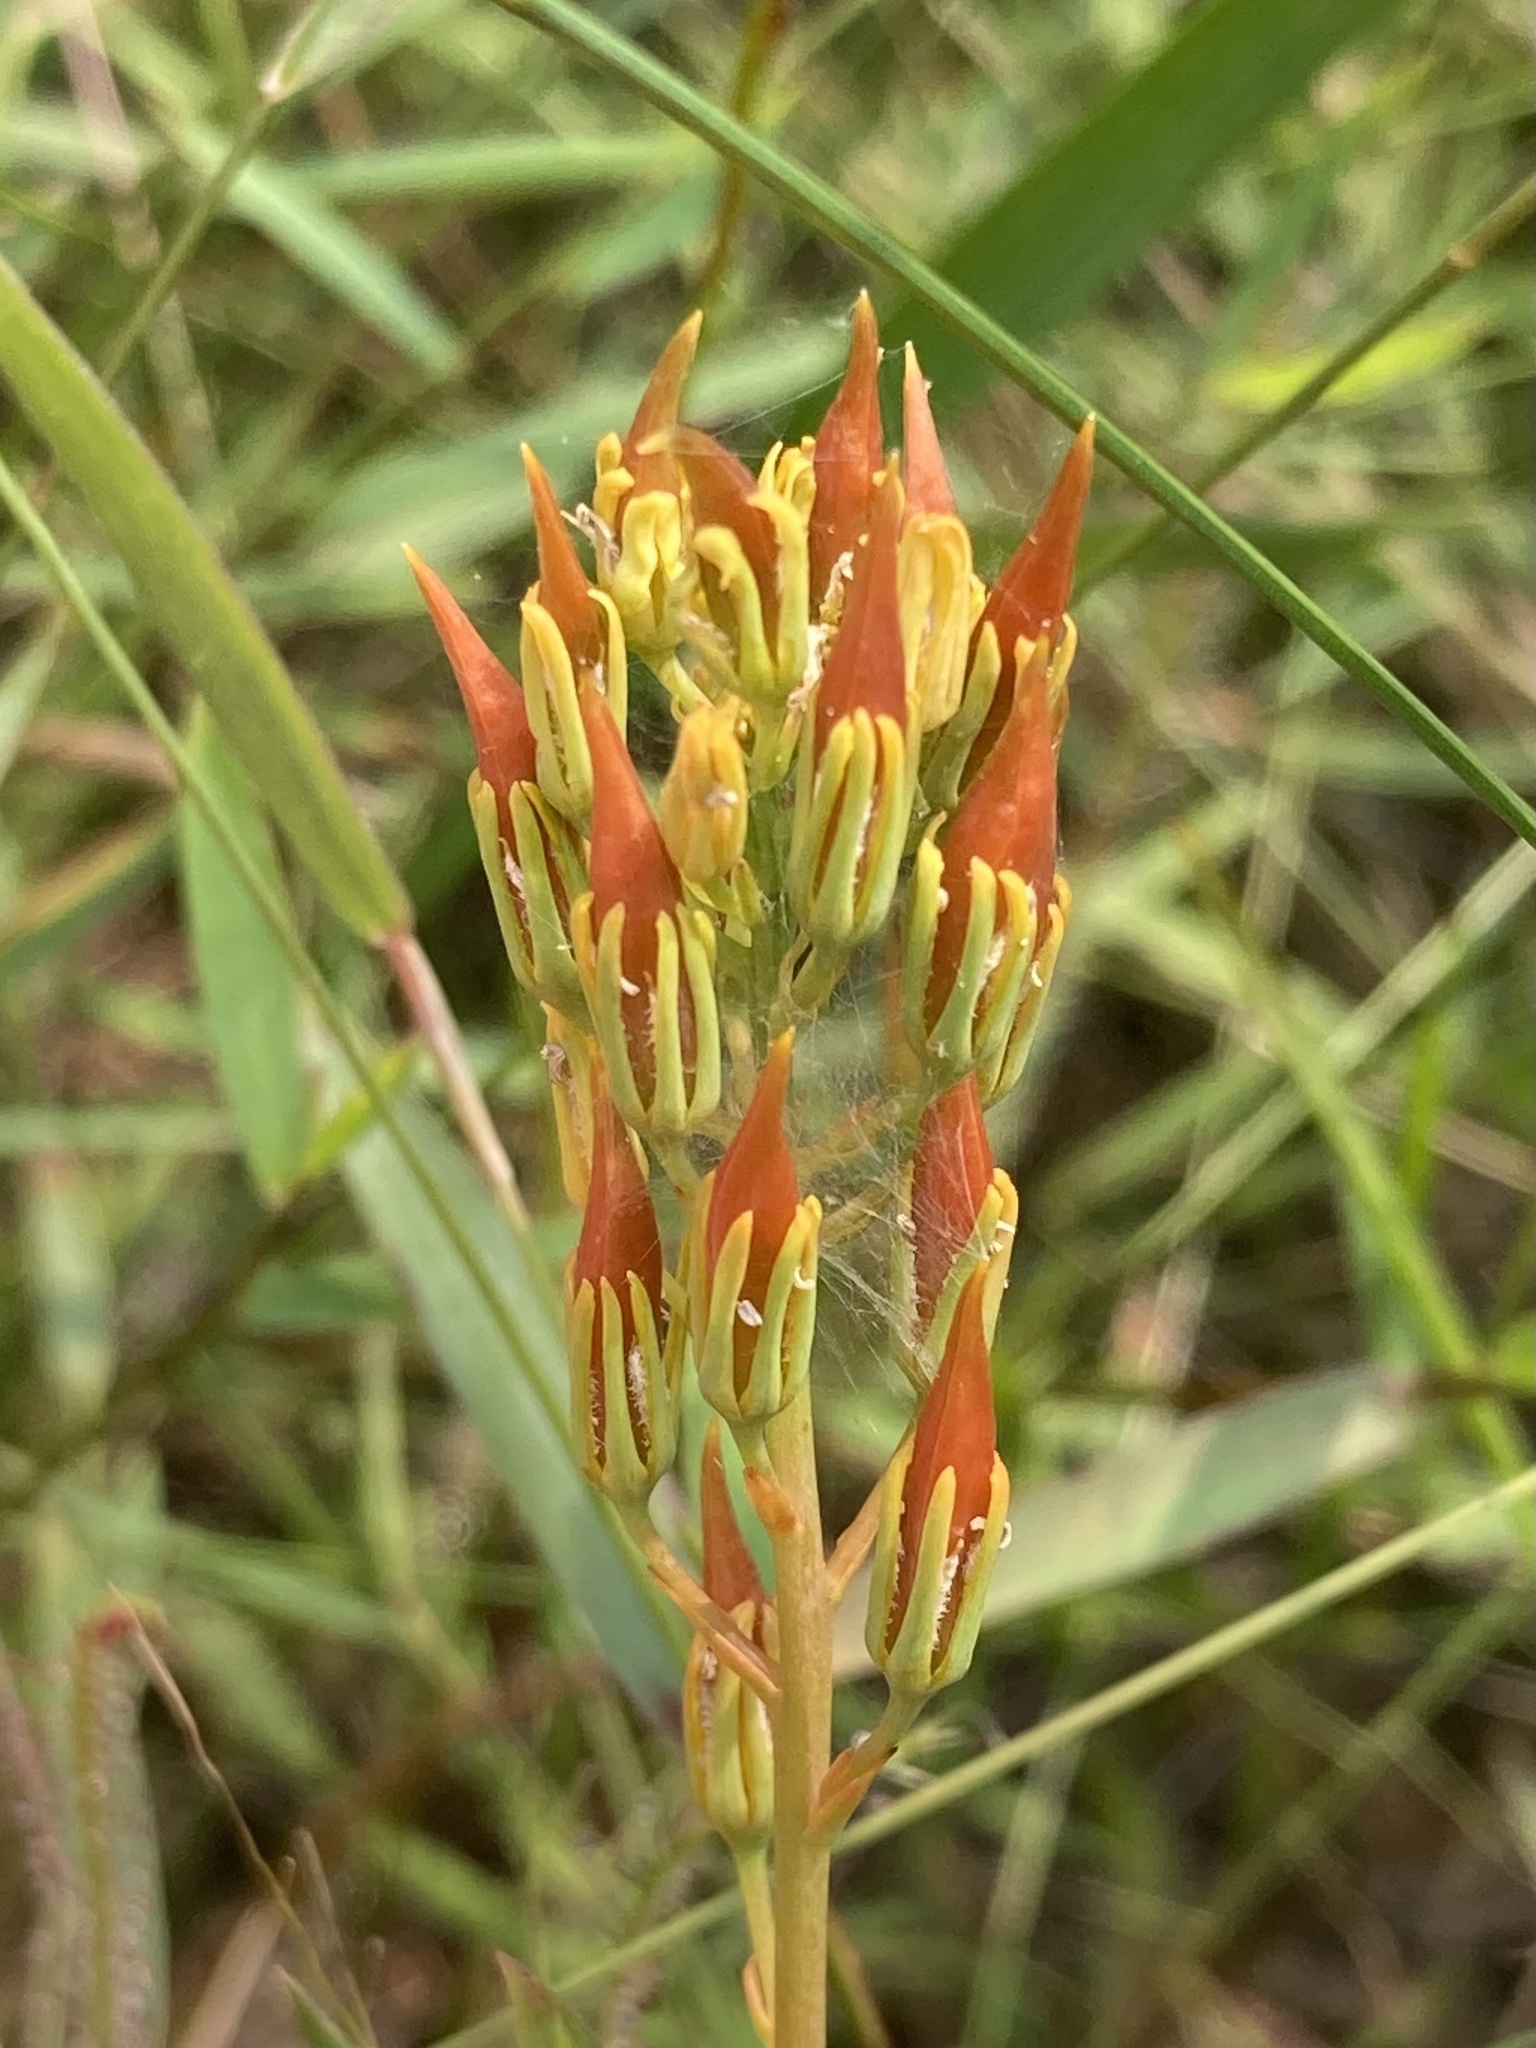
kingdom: Plantae
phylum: Tracheophyta
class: Liliopsida
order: Dioscoreales
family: Nartheciaceae
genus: Narthecium
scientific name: Narthecium americanum
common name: Bog-asphodel
